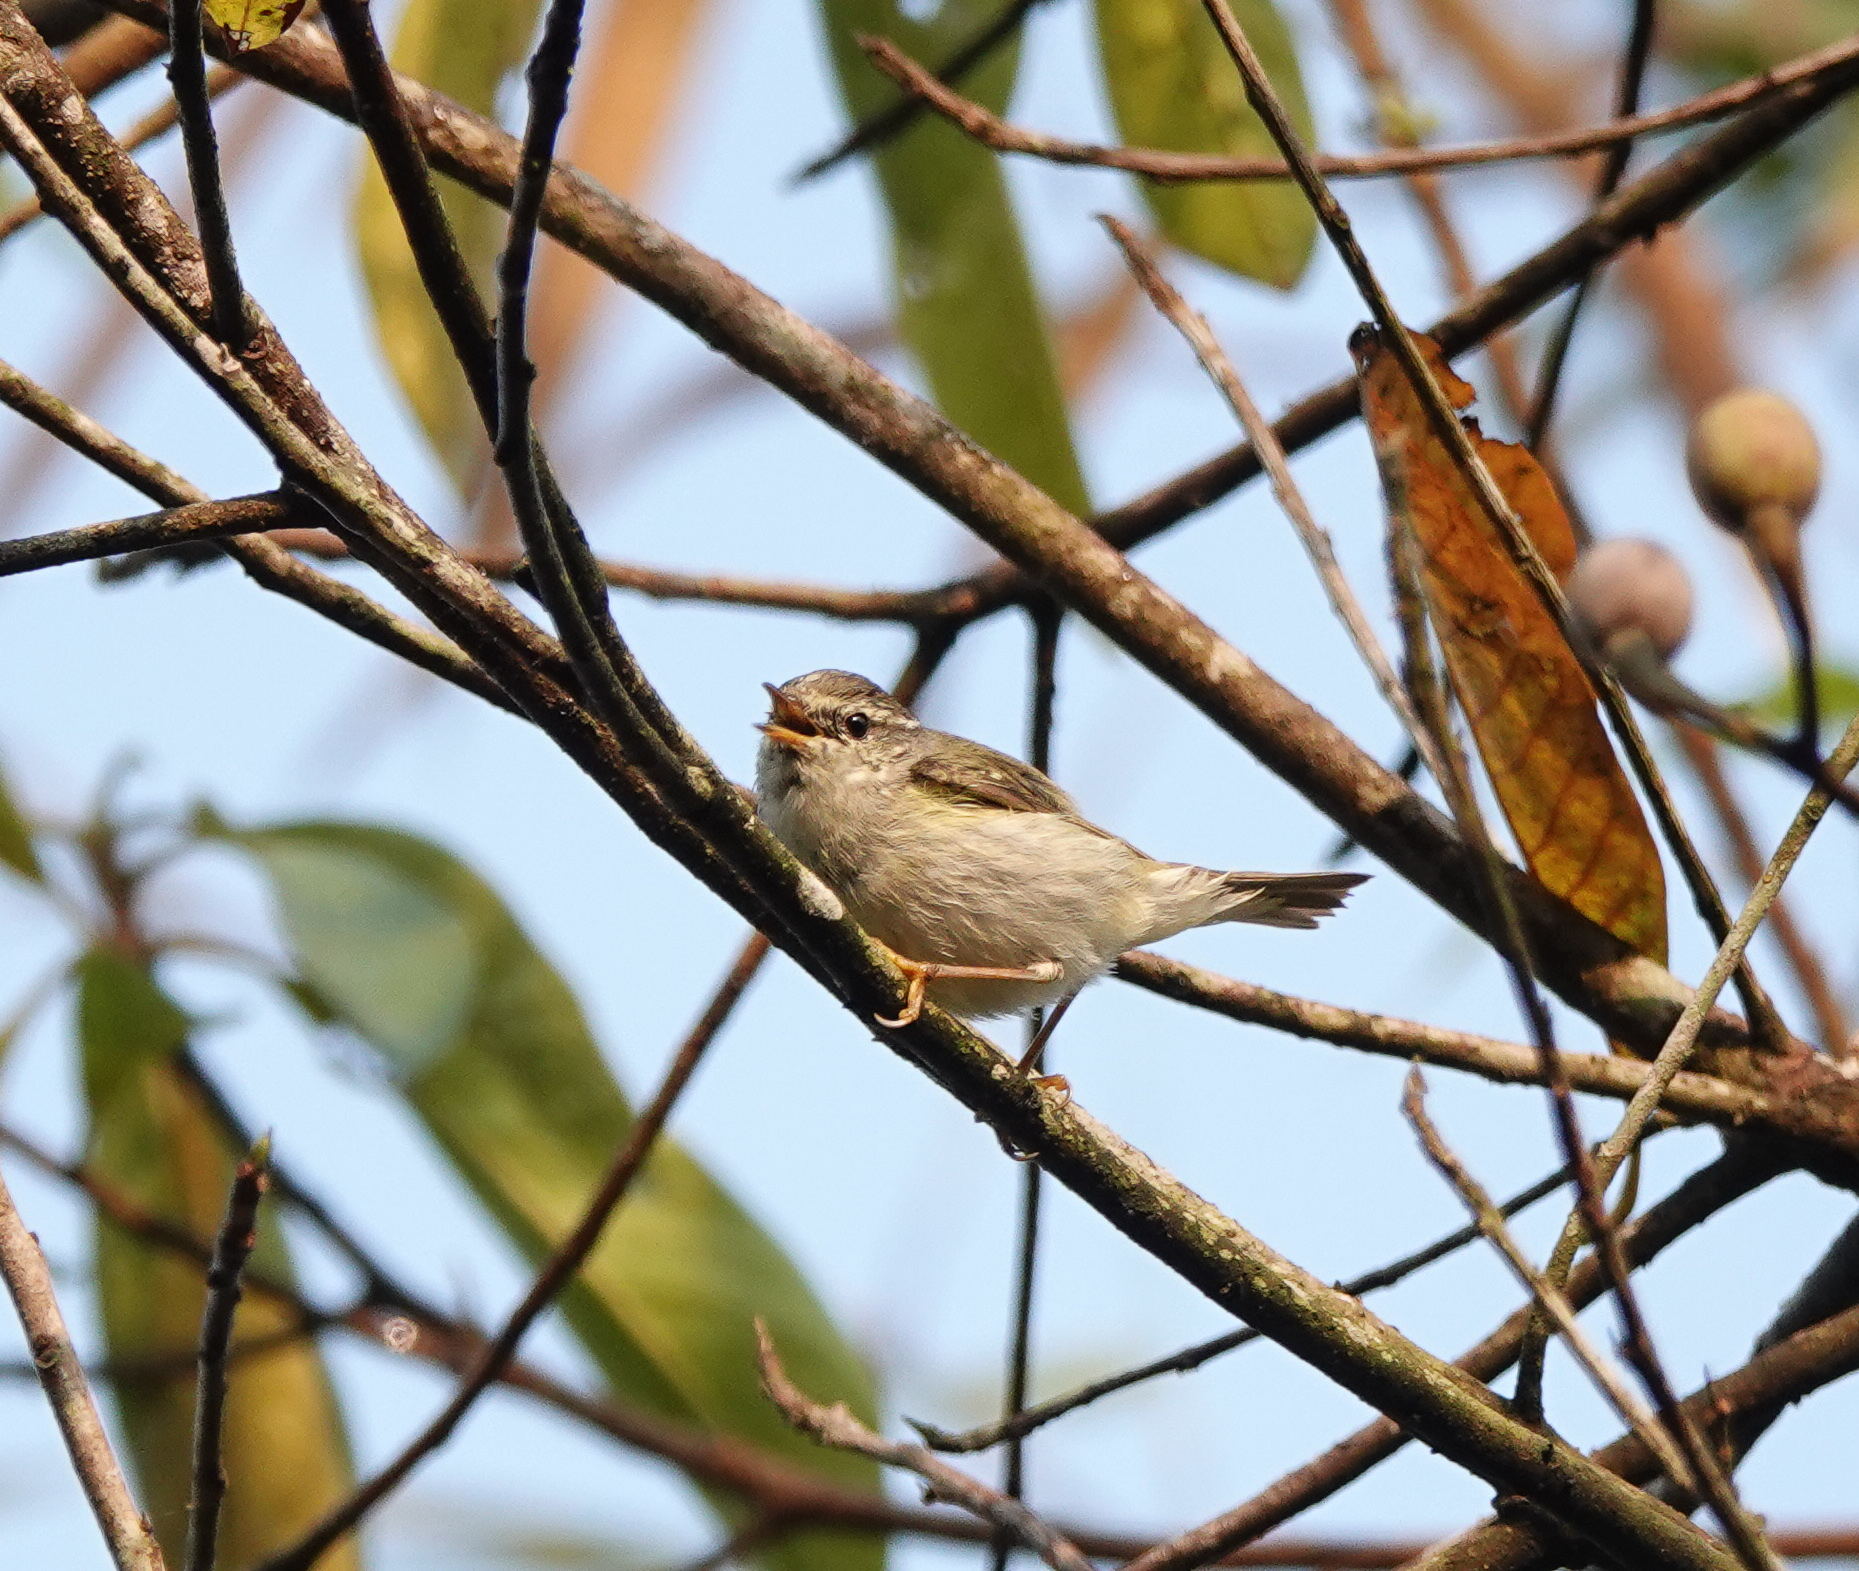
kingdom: Animalia
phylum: Chordata
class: Aves
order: Passeriformes
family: Phylloscopidae
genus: Phylloscopus
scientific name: Phylloscopus inornatus
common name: Yellow-browed warbler
